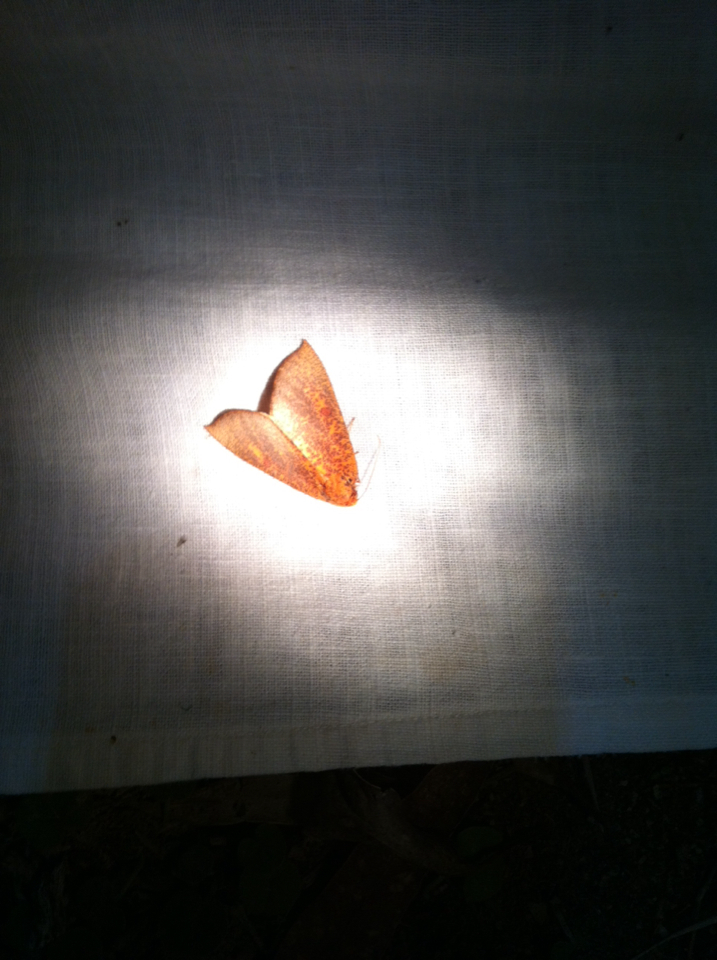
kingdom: Animalia
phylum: Arthropoda
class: Insecta
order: Lepidoptera
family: Geometridae
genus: Plesanemma
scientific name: Plesanemma fucata
